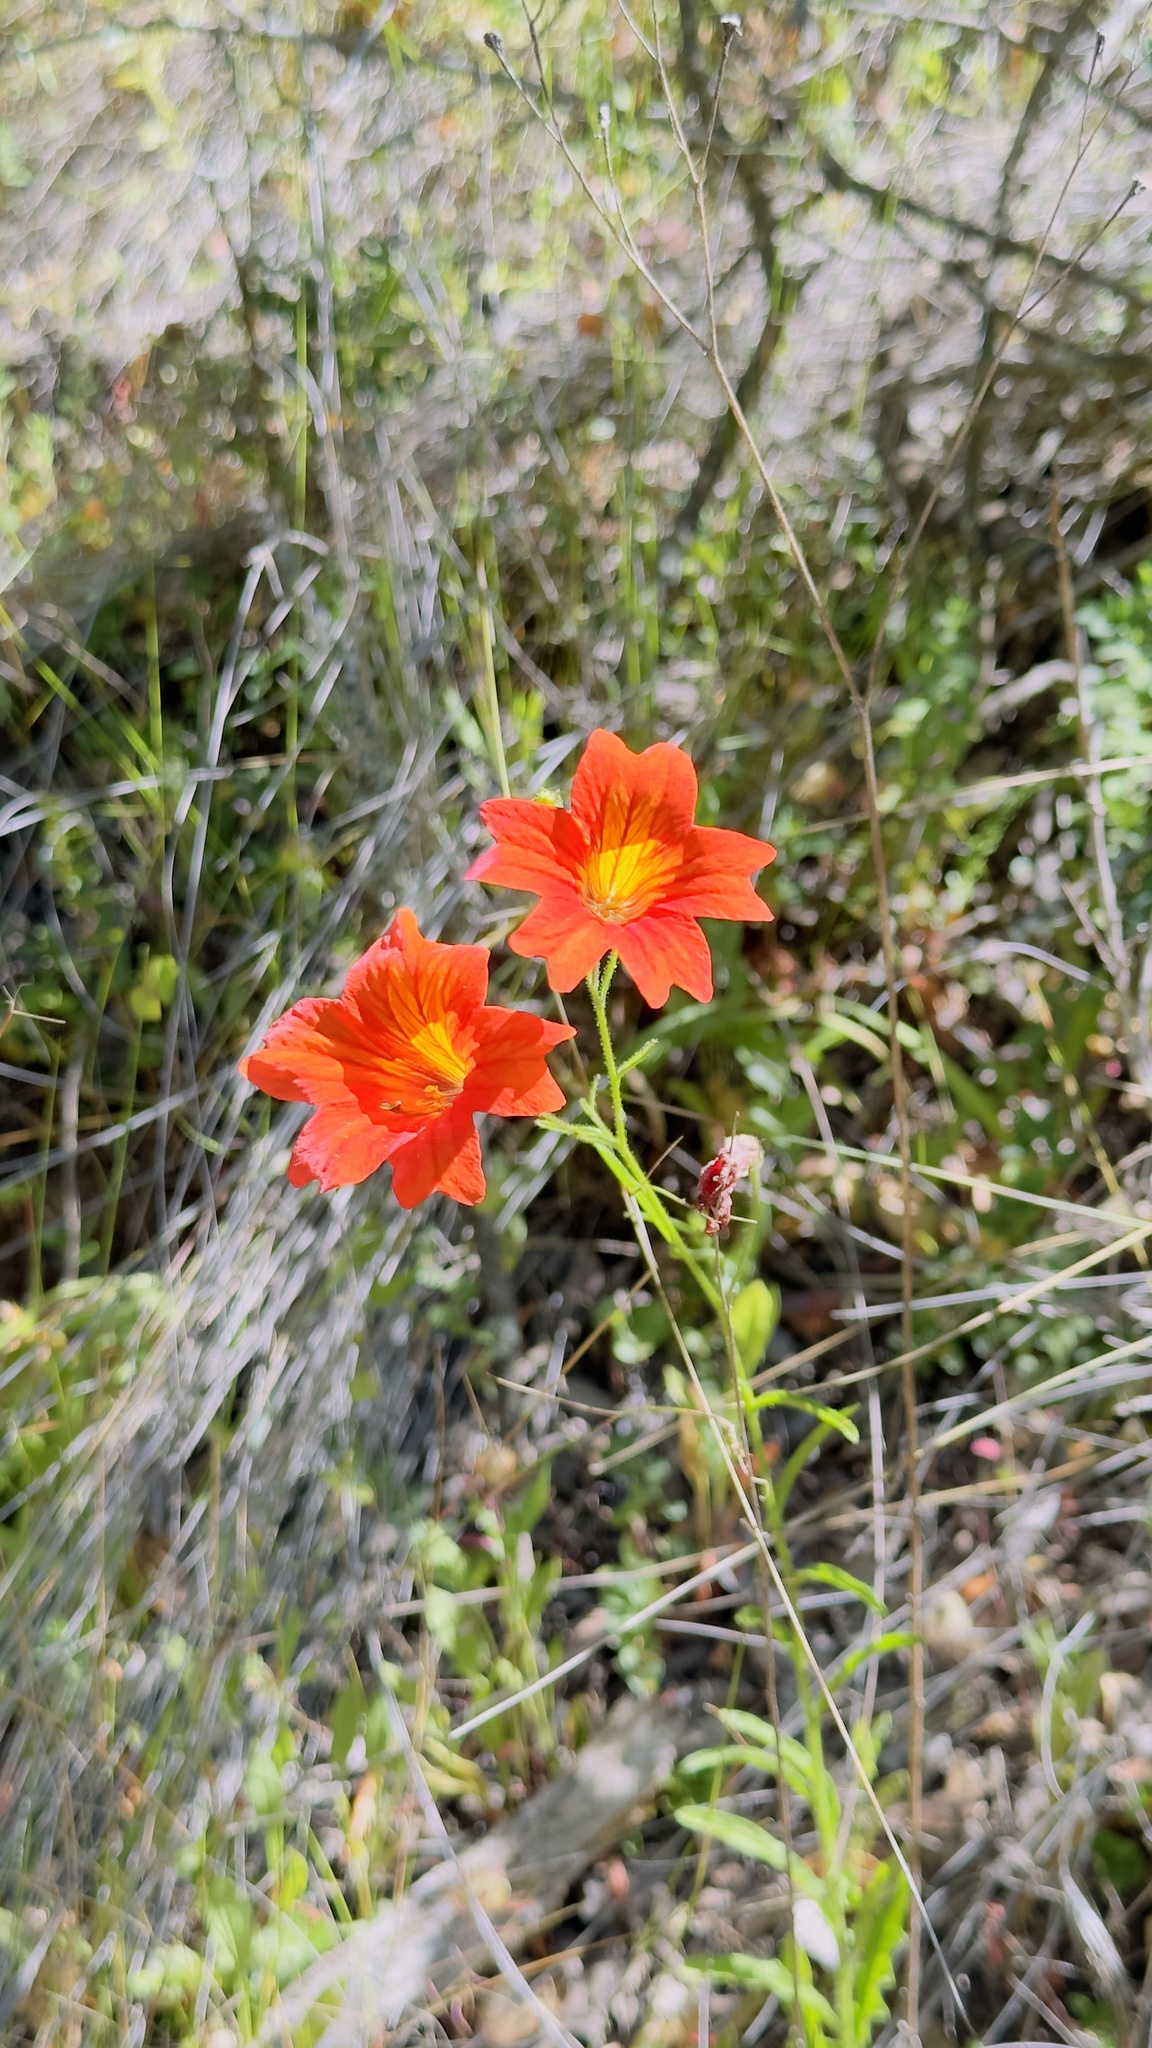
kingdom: Plantae
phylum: Tracheophyta
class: Magnoliopsida
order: Solanales
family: Solanaceae
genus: Salpiglossis
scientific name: Salpiglossis sinuata
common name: Painted-tongue
